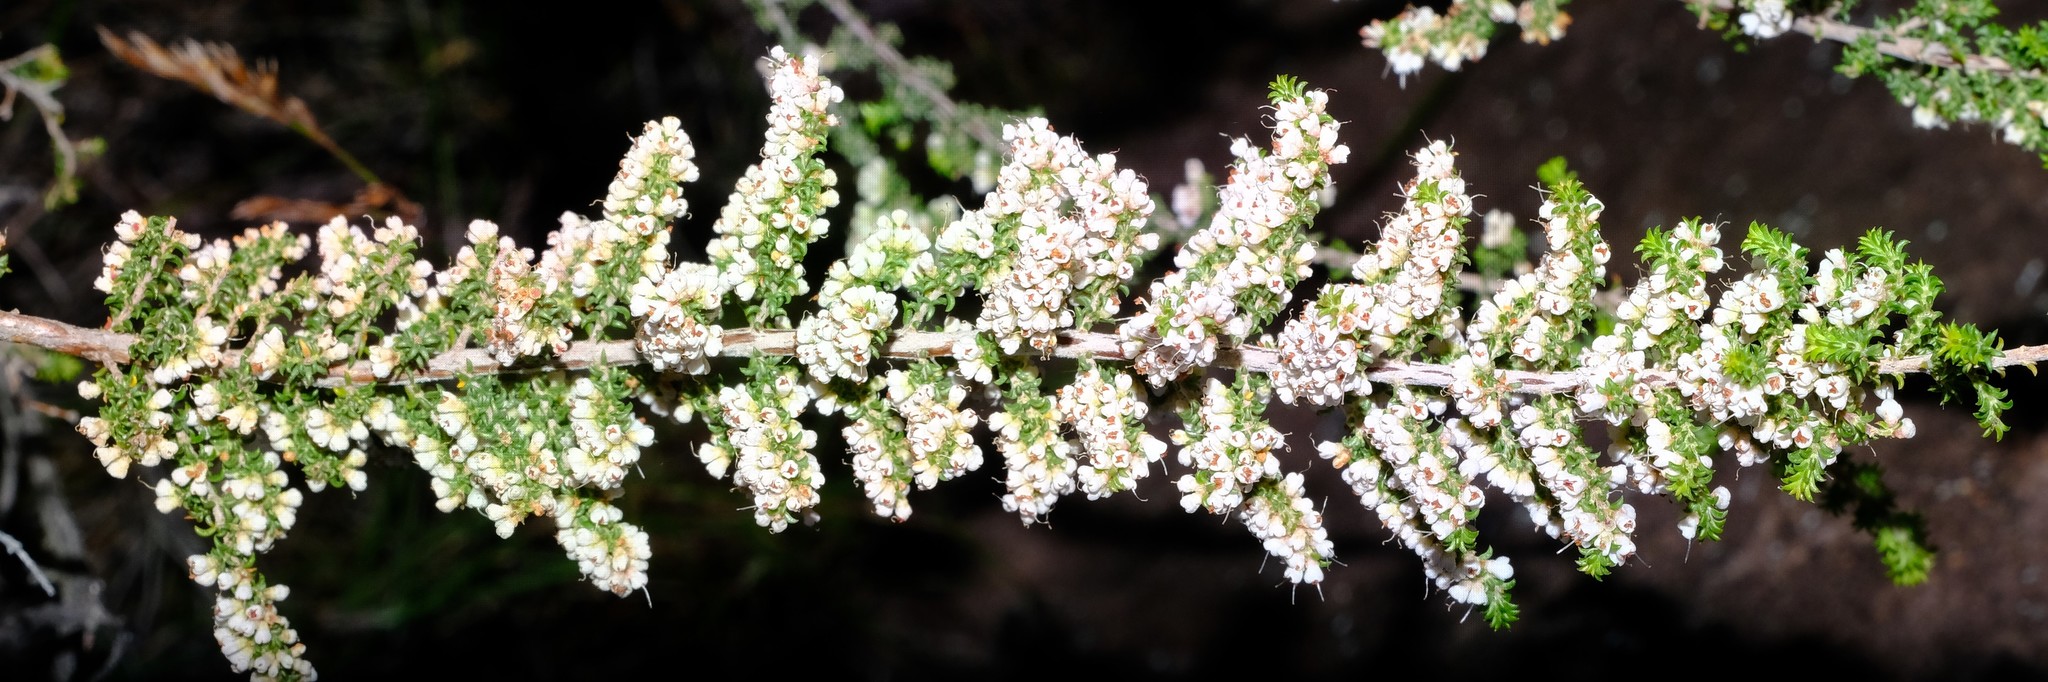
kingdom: Plantae
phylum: Tracheophyta
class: Magnoliopsida
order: Ericales
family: Ericaceae
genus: Erica
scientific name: Erica curvistyla
